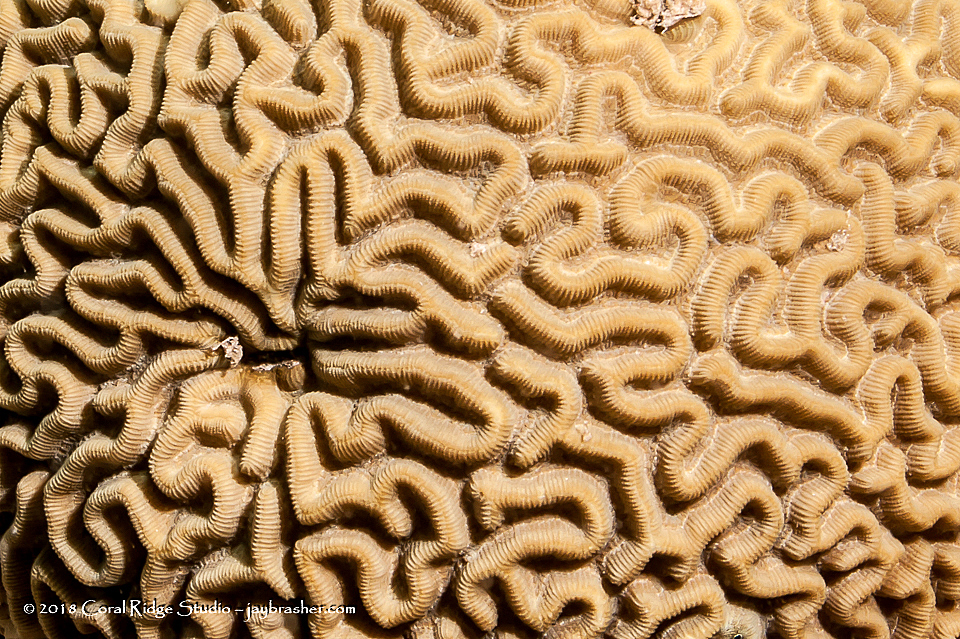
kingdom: Animalia
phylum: Cnidaria
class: Anthozoa
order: Scleractinia
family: Faviidae
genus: Colpophyllia
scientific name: Colpophyllia natans
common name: Boulder brain coral
